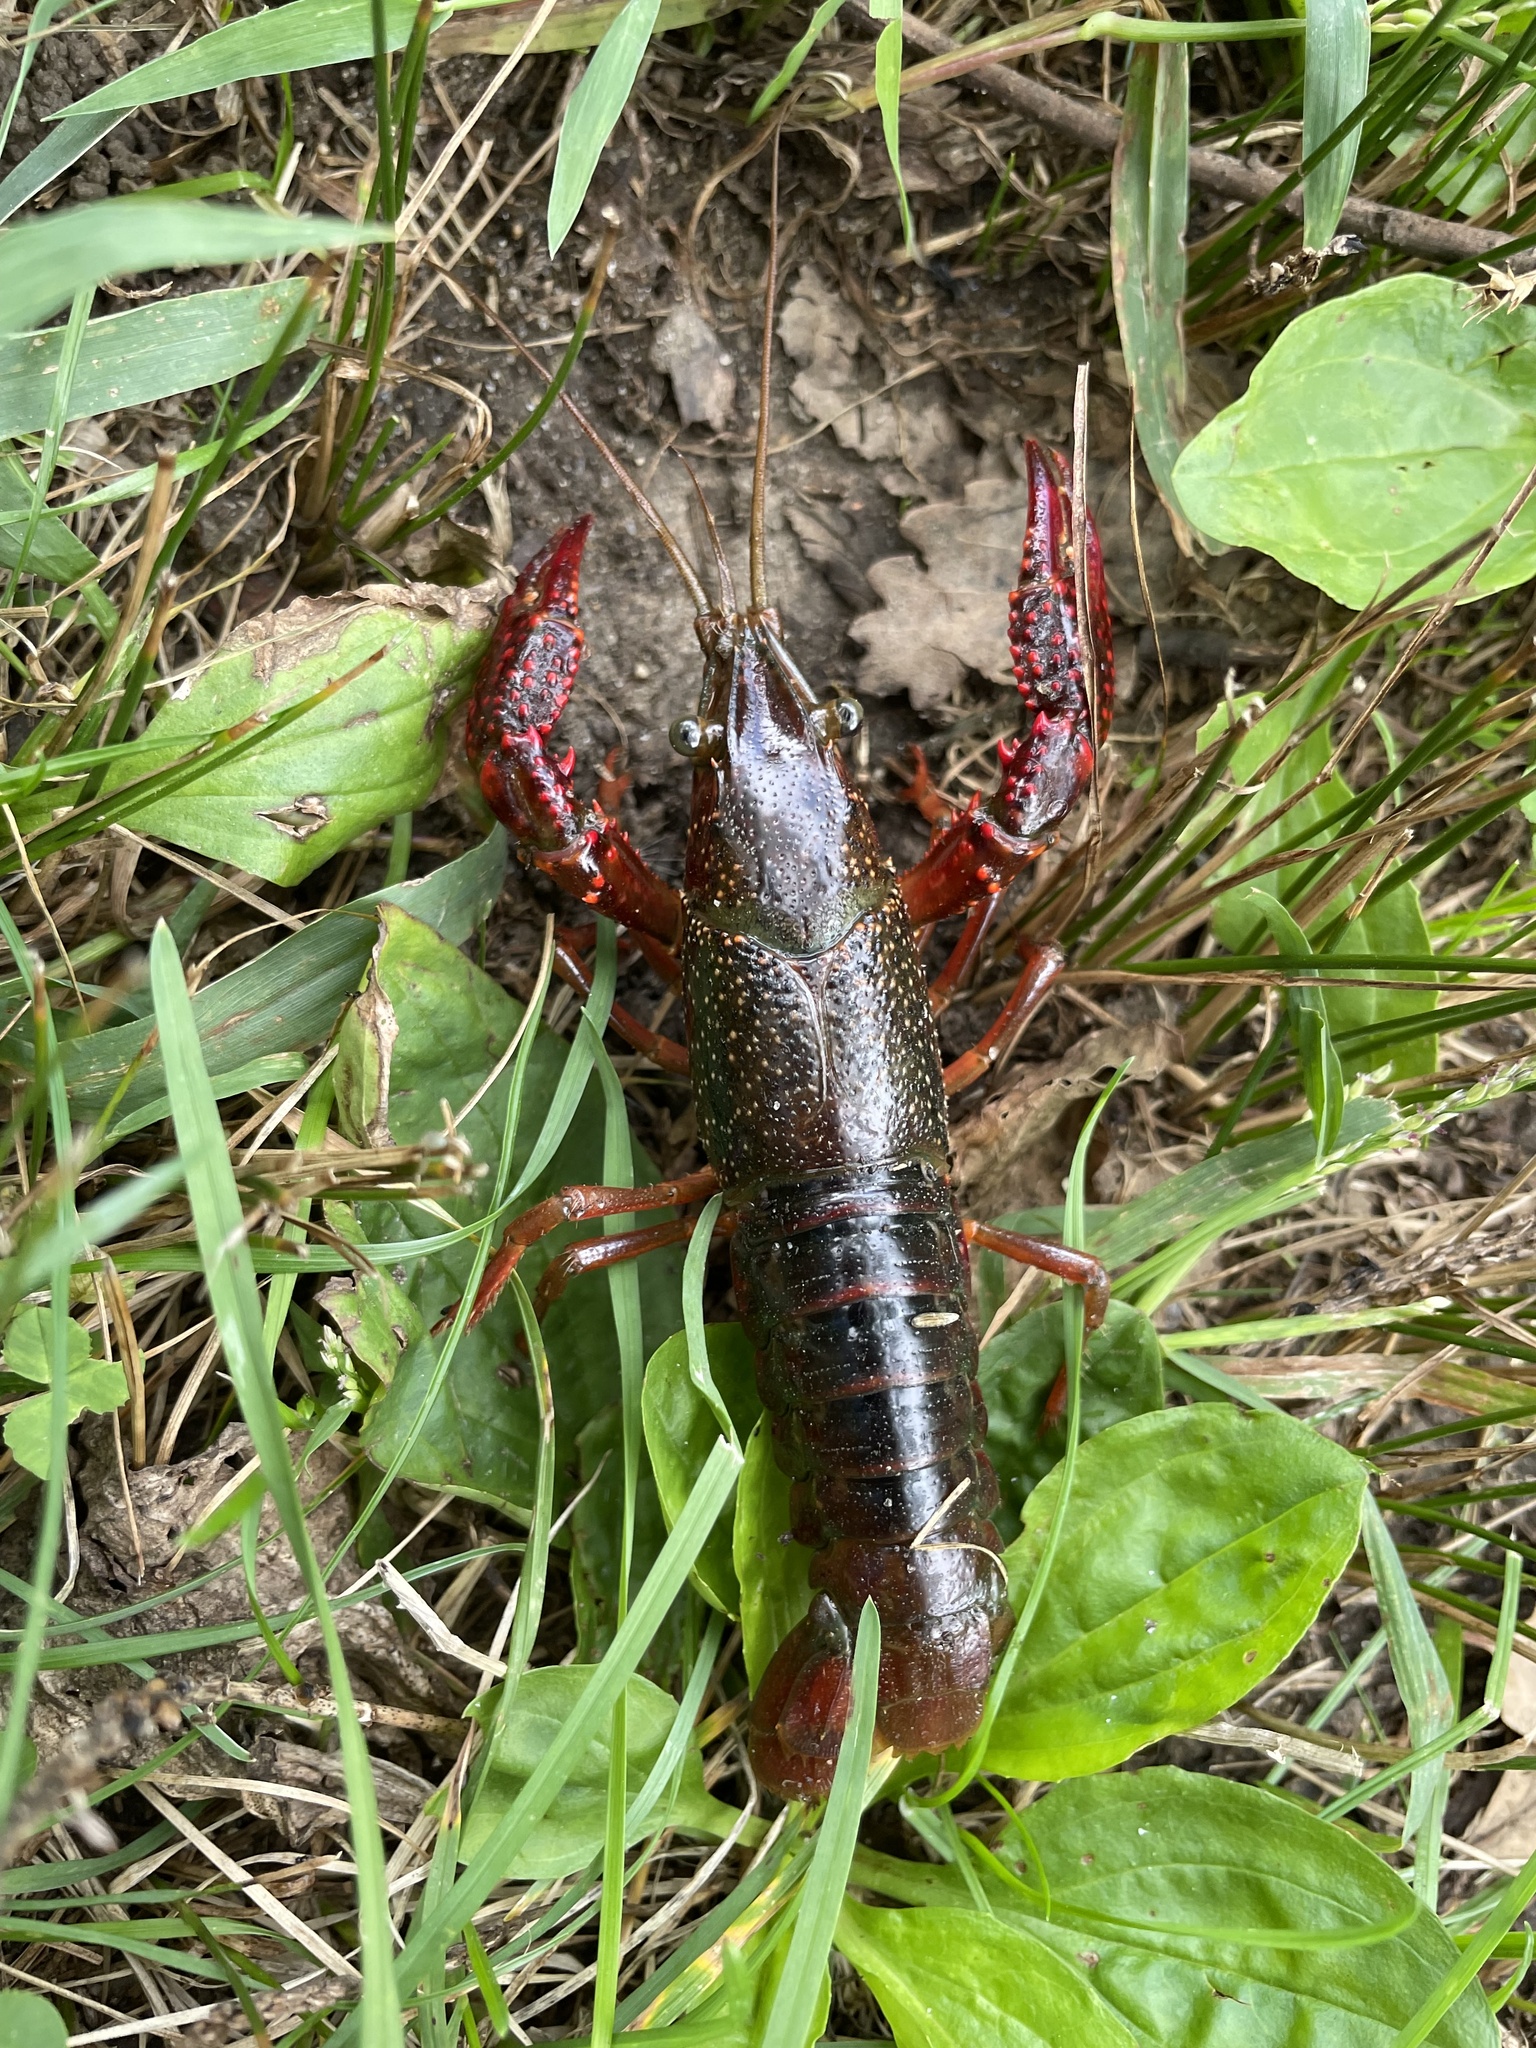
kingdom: Animalia
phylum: Arthropoda
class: Malacostraca
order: Decapoda
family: Cambaridae
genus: Procambarus
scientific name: Procambarus clarkii
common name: Red swamp crayfish
